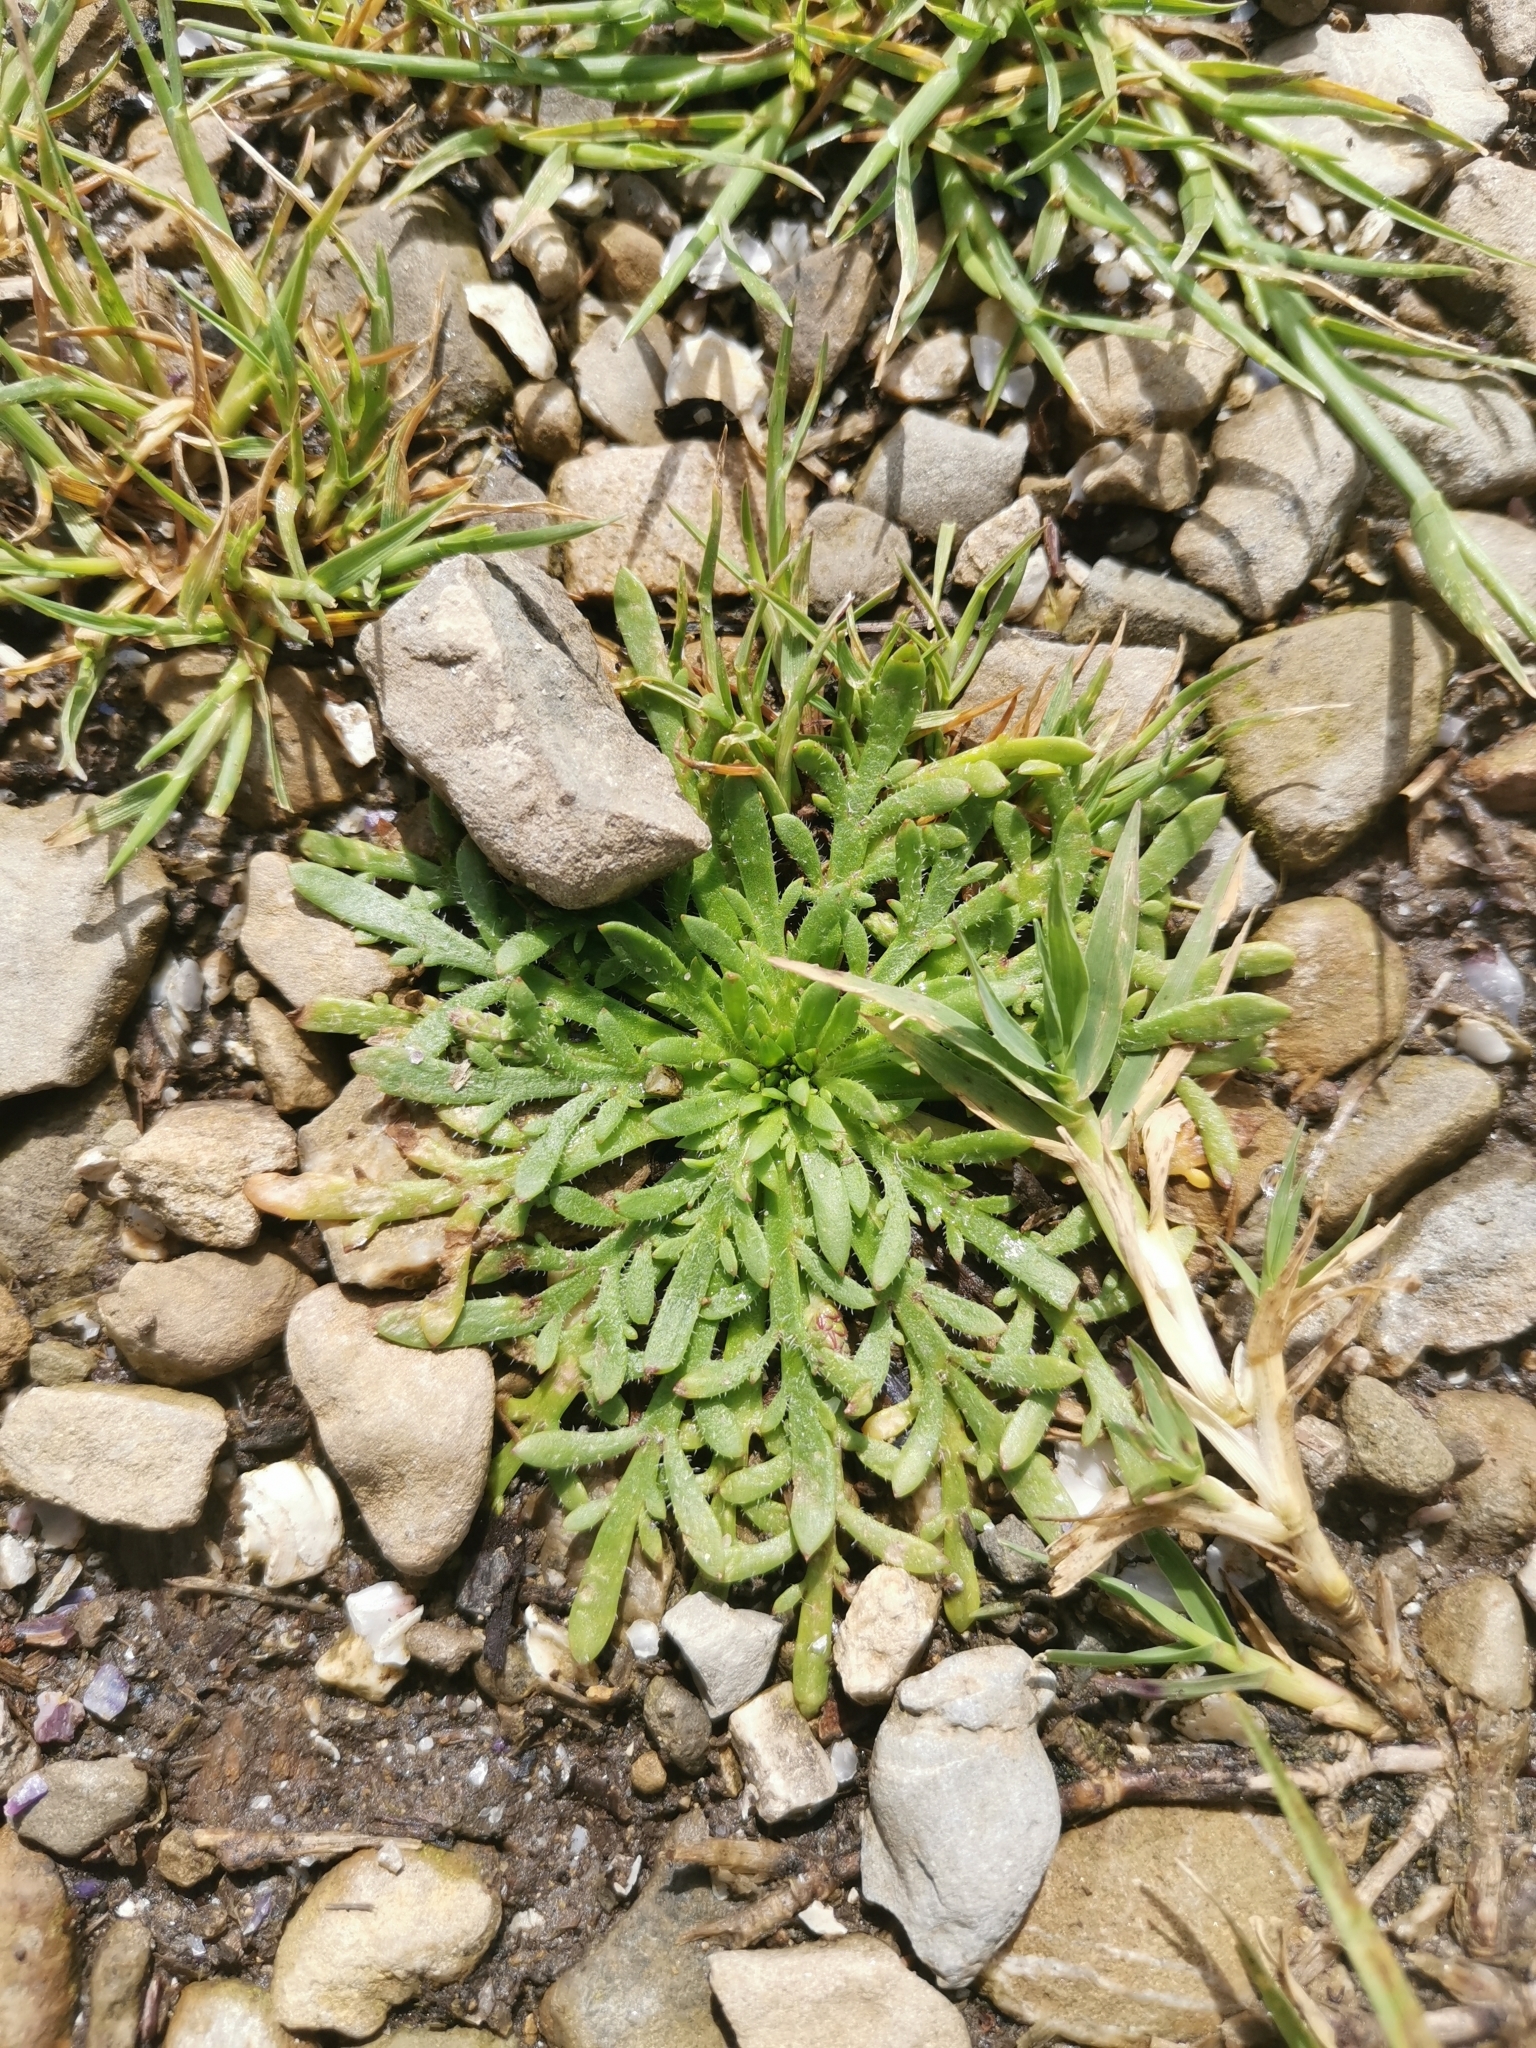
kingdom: Plantae
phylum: Tracheophyta
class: Magnoliopsida
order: Lamiales
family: Plantaginaceae
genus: Plantago
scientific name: Plantago coronopus
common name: Buck's-horn plantain
